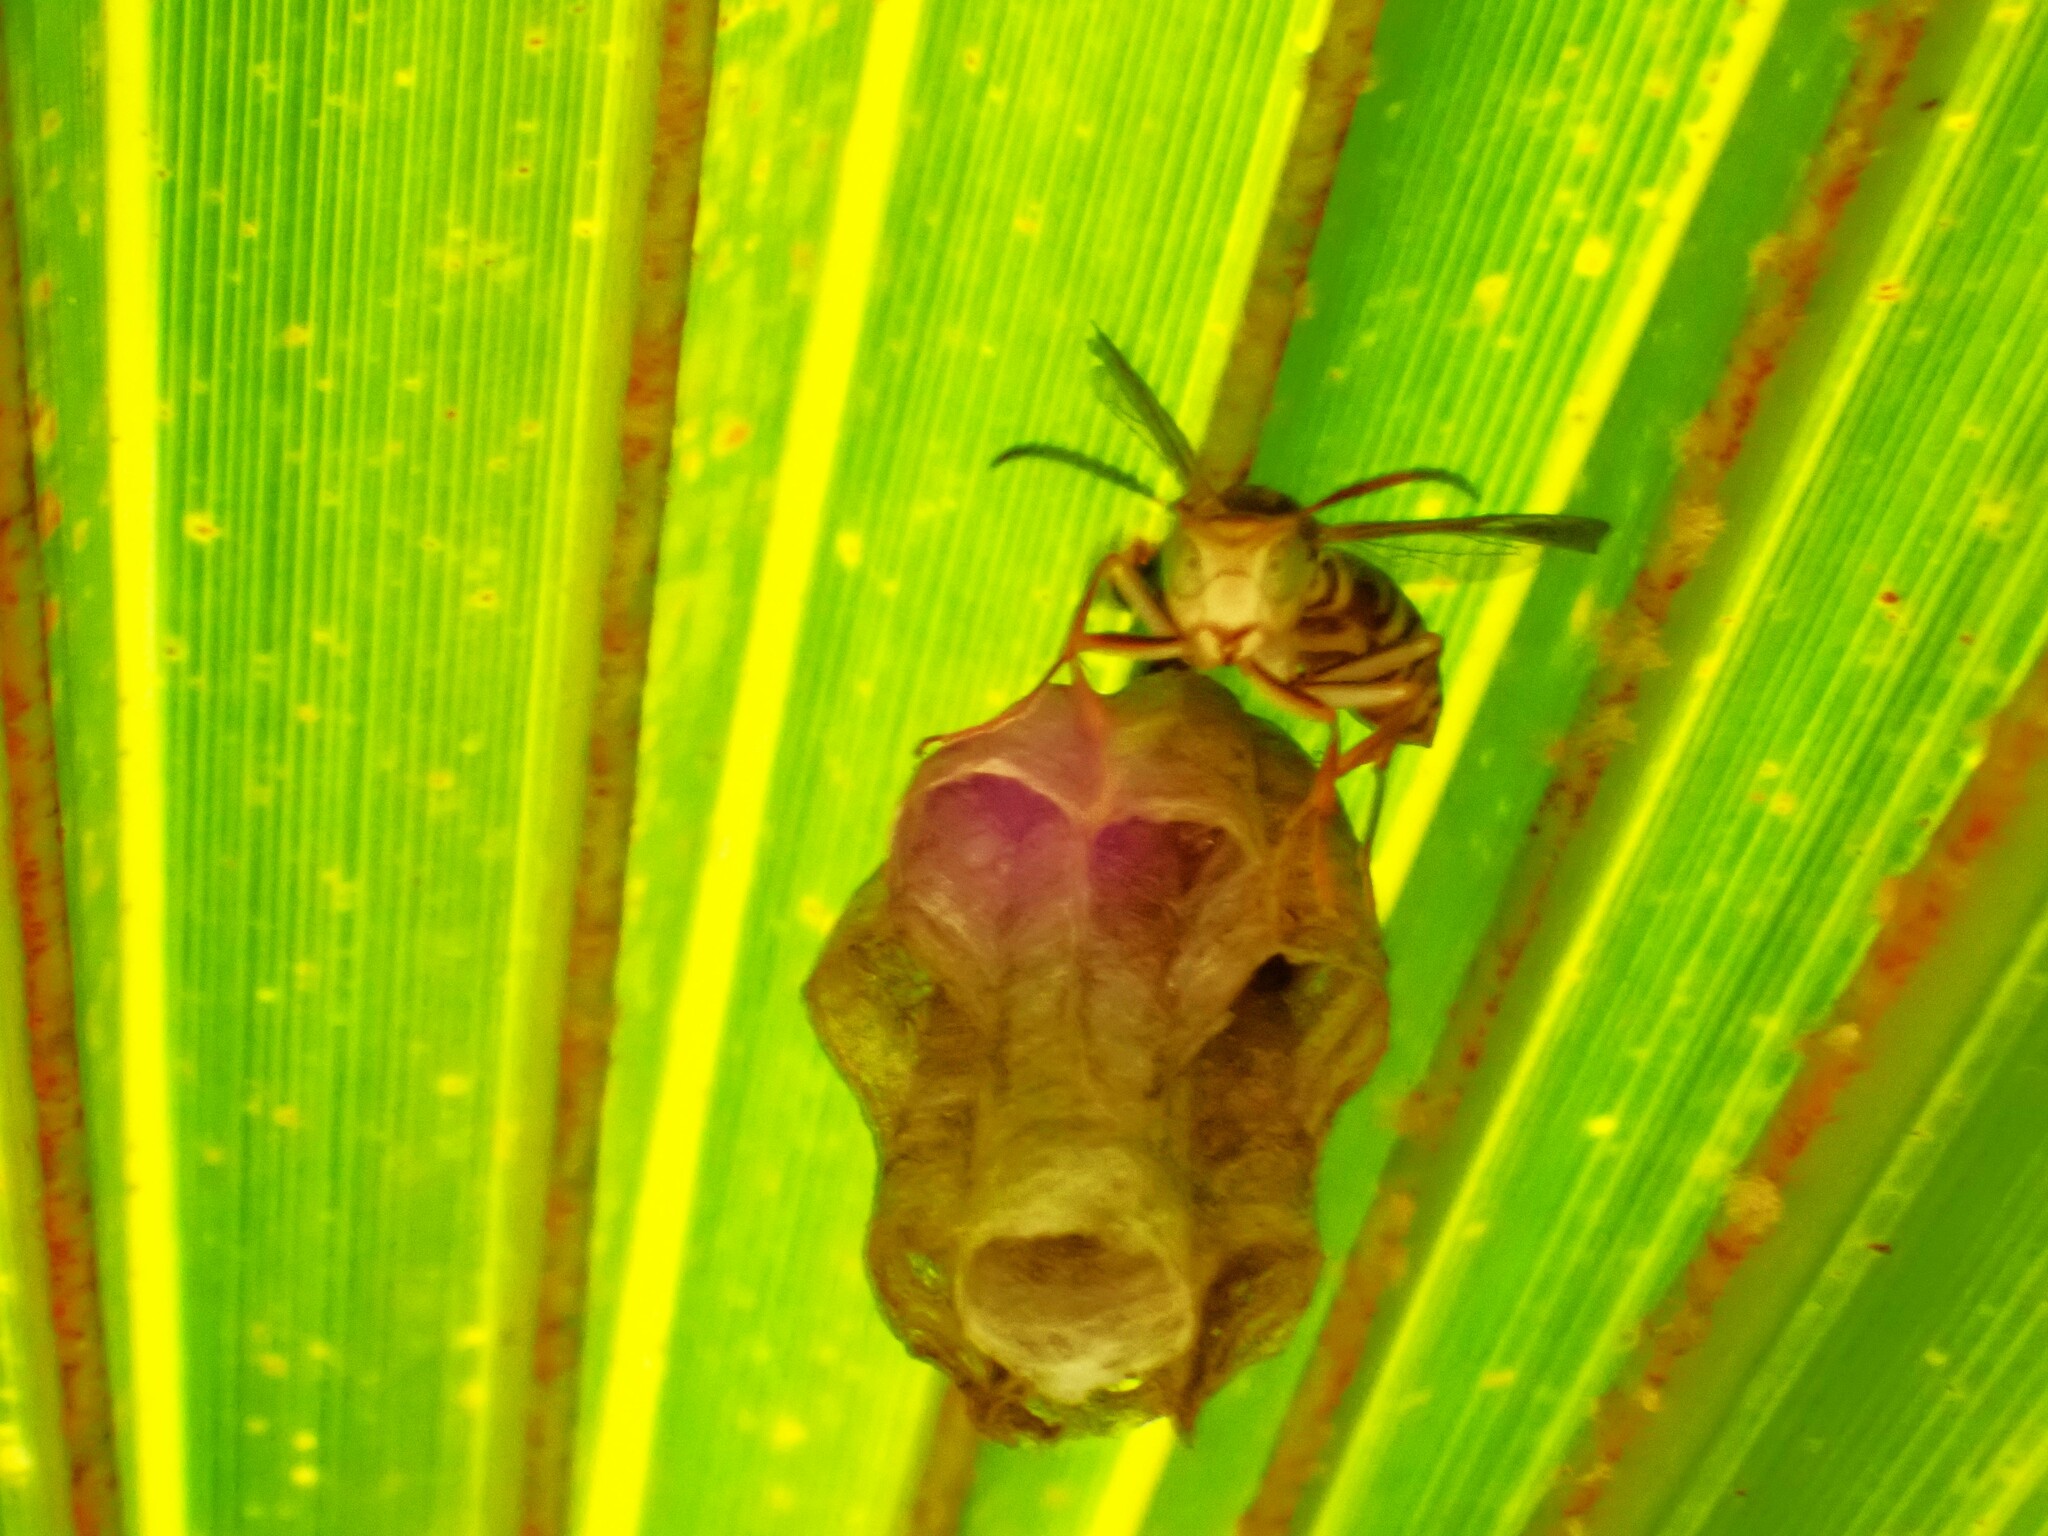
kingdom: Animalia
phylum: Arthropoda
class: Insecta
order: Hymenoptera
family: Eumenidae
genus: Polistes
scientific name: Polistes olivaceus
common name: Paper wasp
